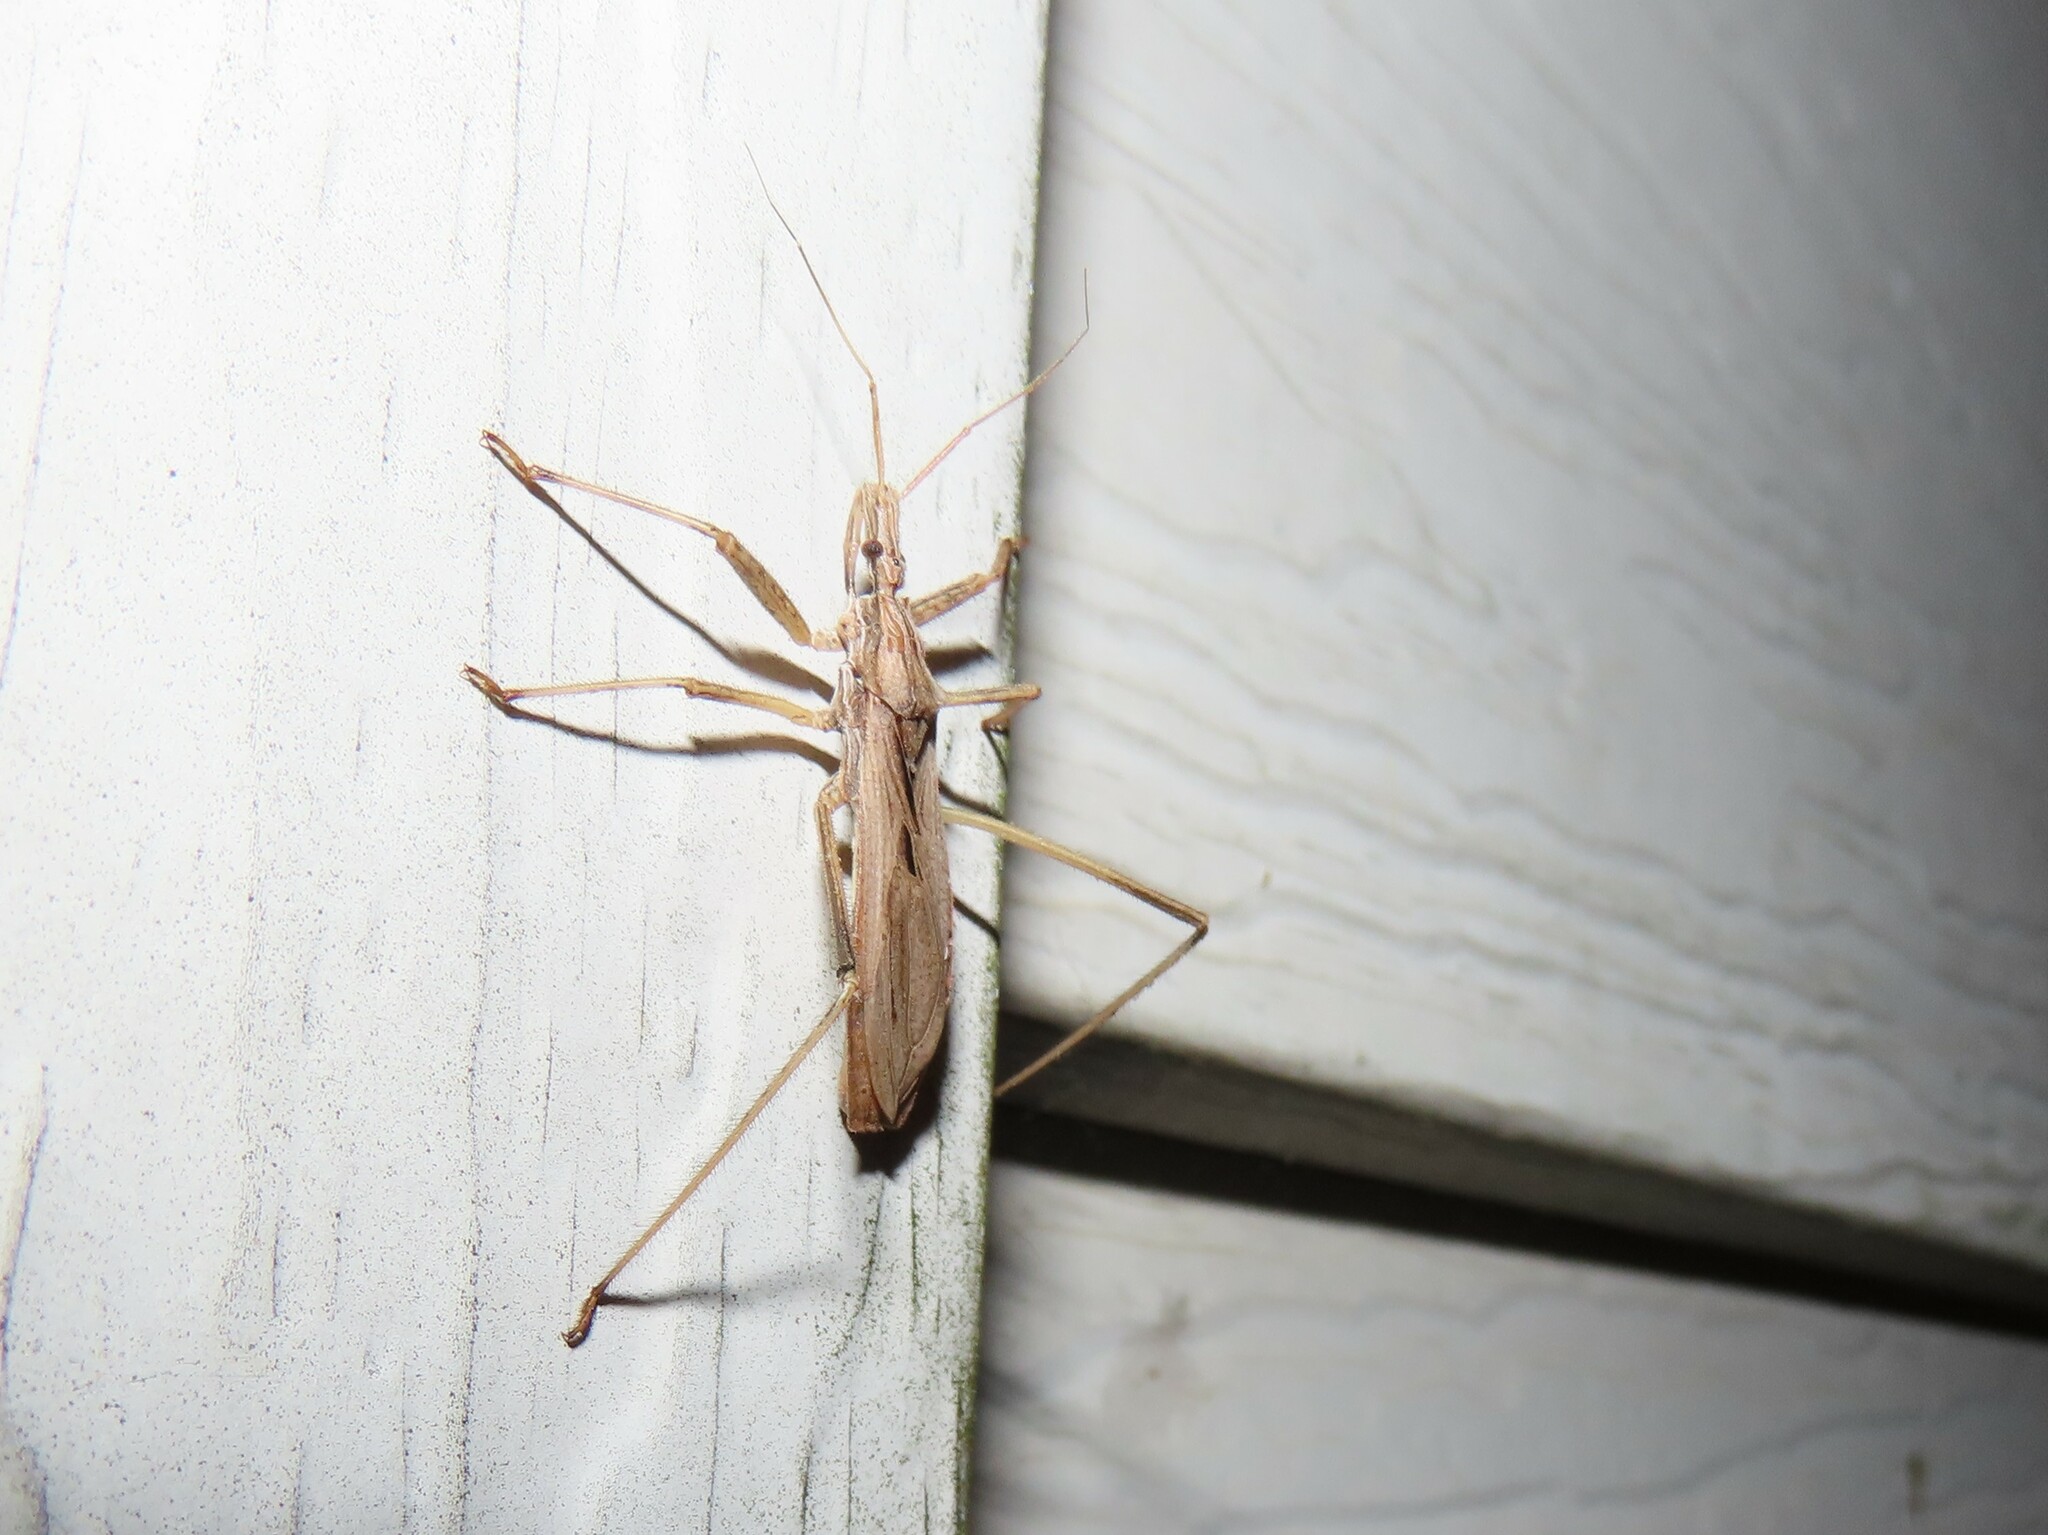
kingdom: Animalia
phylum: Arthropoda
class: Insecta
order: Hemiptera
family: Reduviidae
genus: Stenopoda
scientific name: Stenopoda spinulosa
